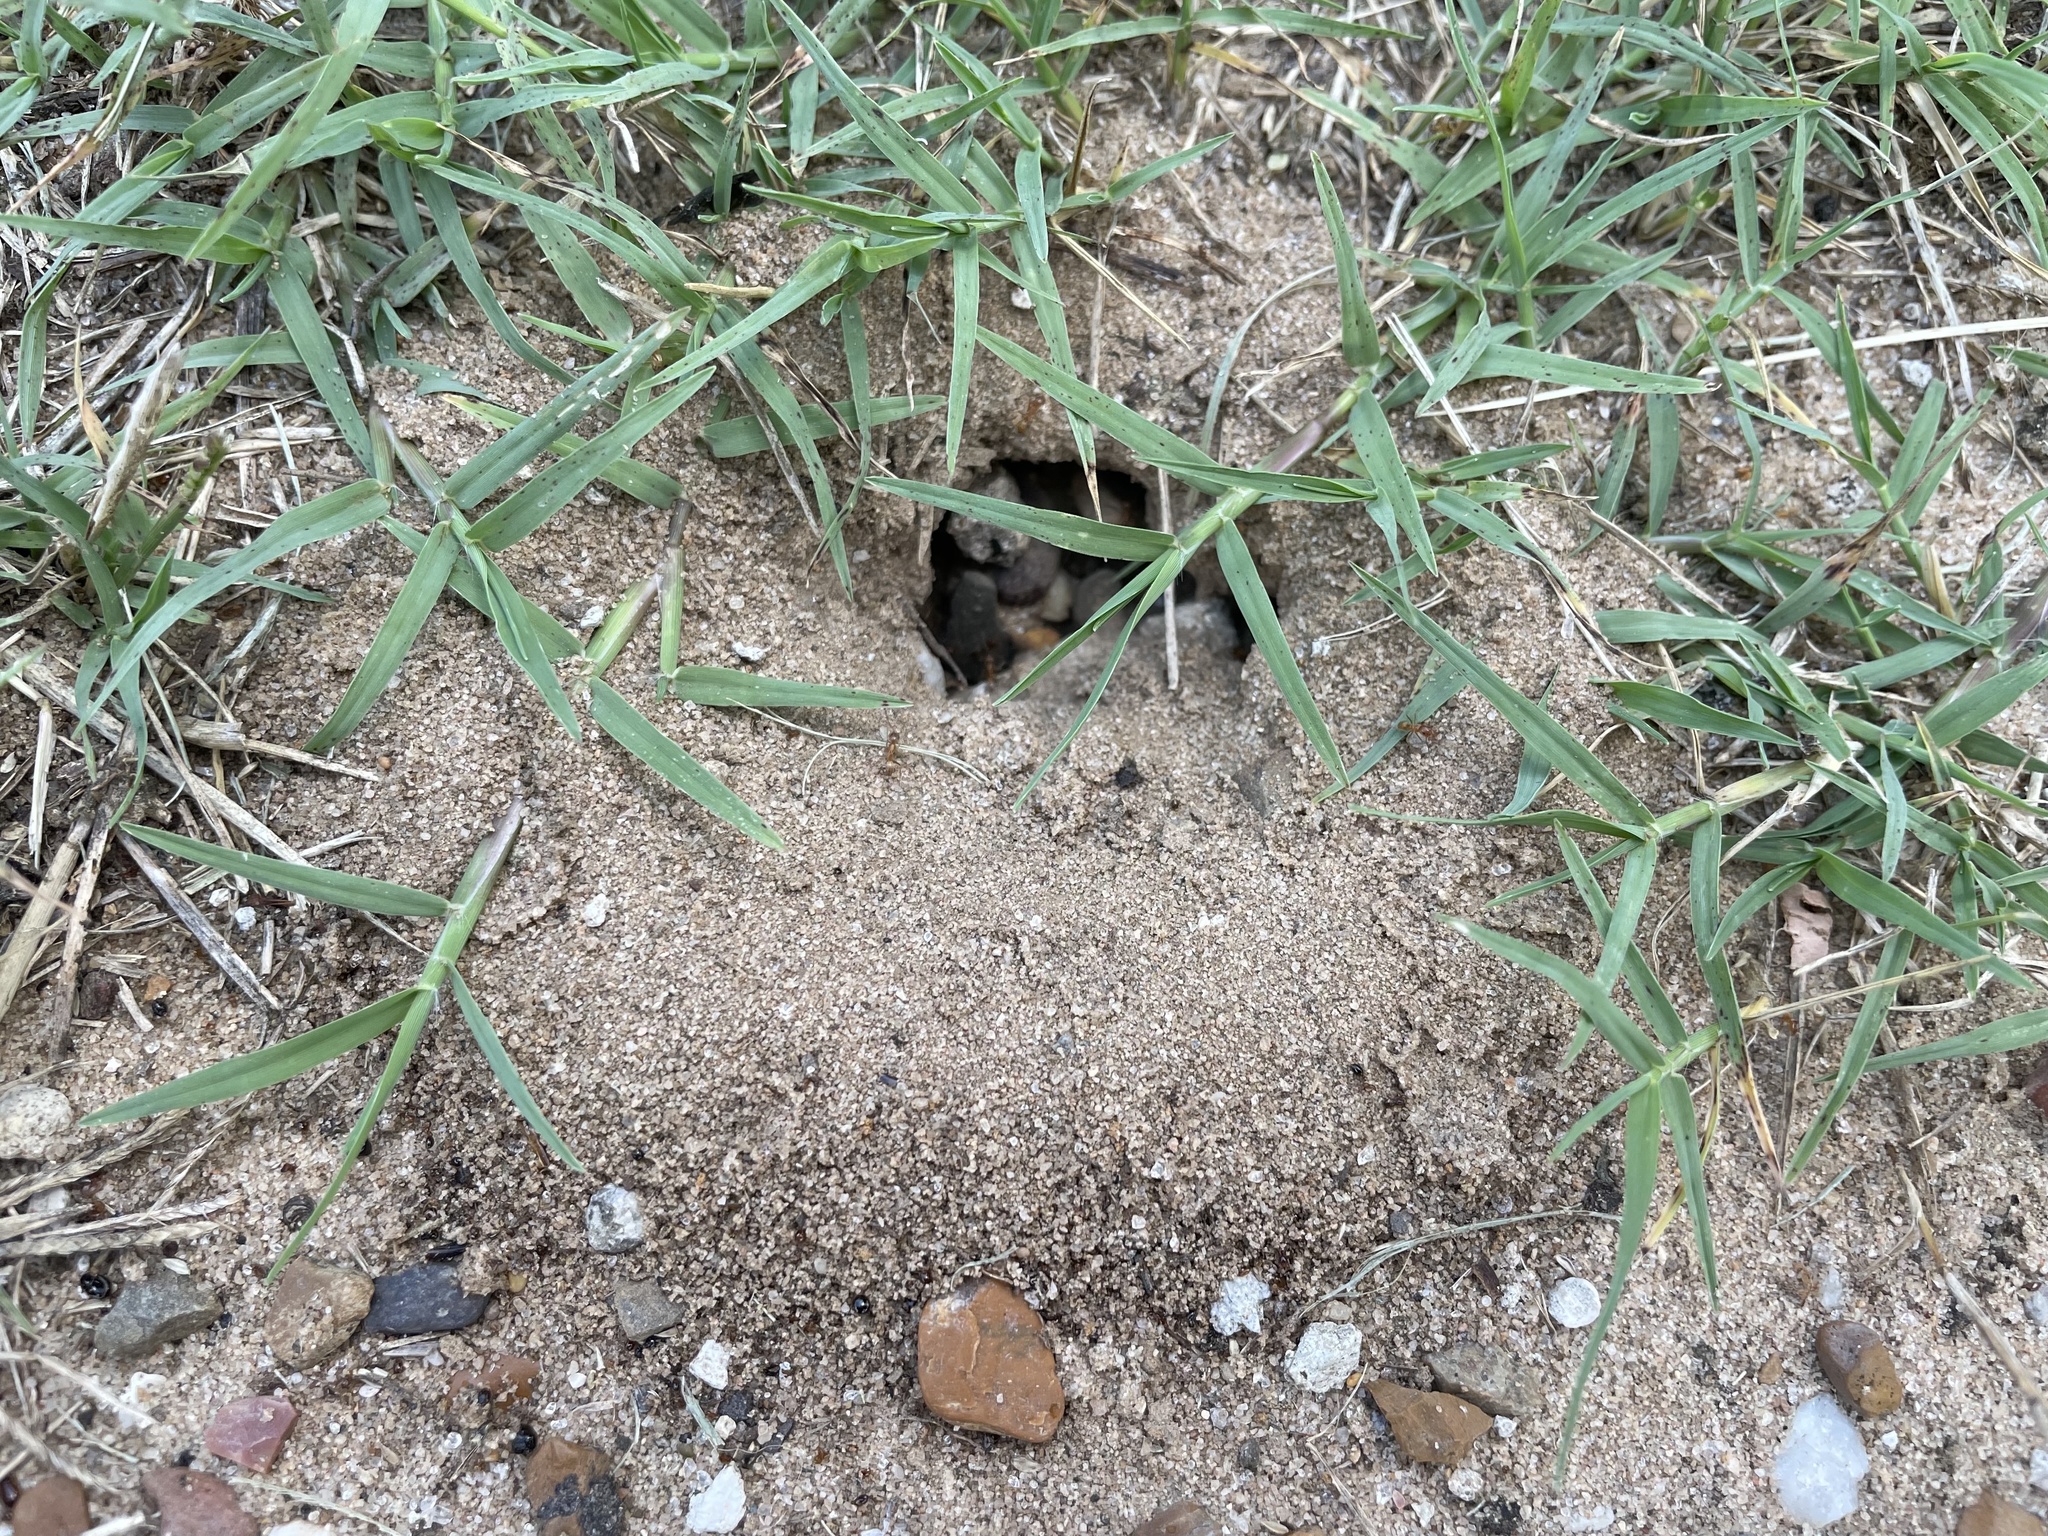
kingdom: Animalia
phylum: Arthropoda
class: Insecta
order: Hymenoptera
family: Formicidae
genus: Dorymyrmex
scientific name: Dorymyrmex flavus
